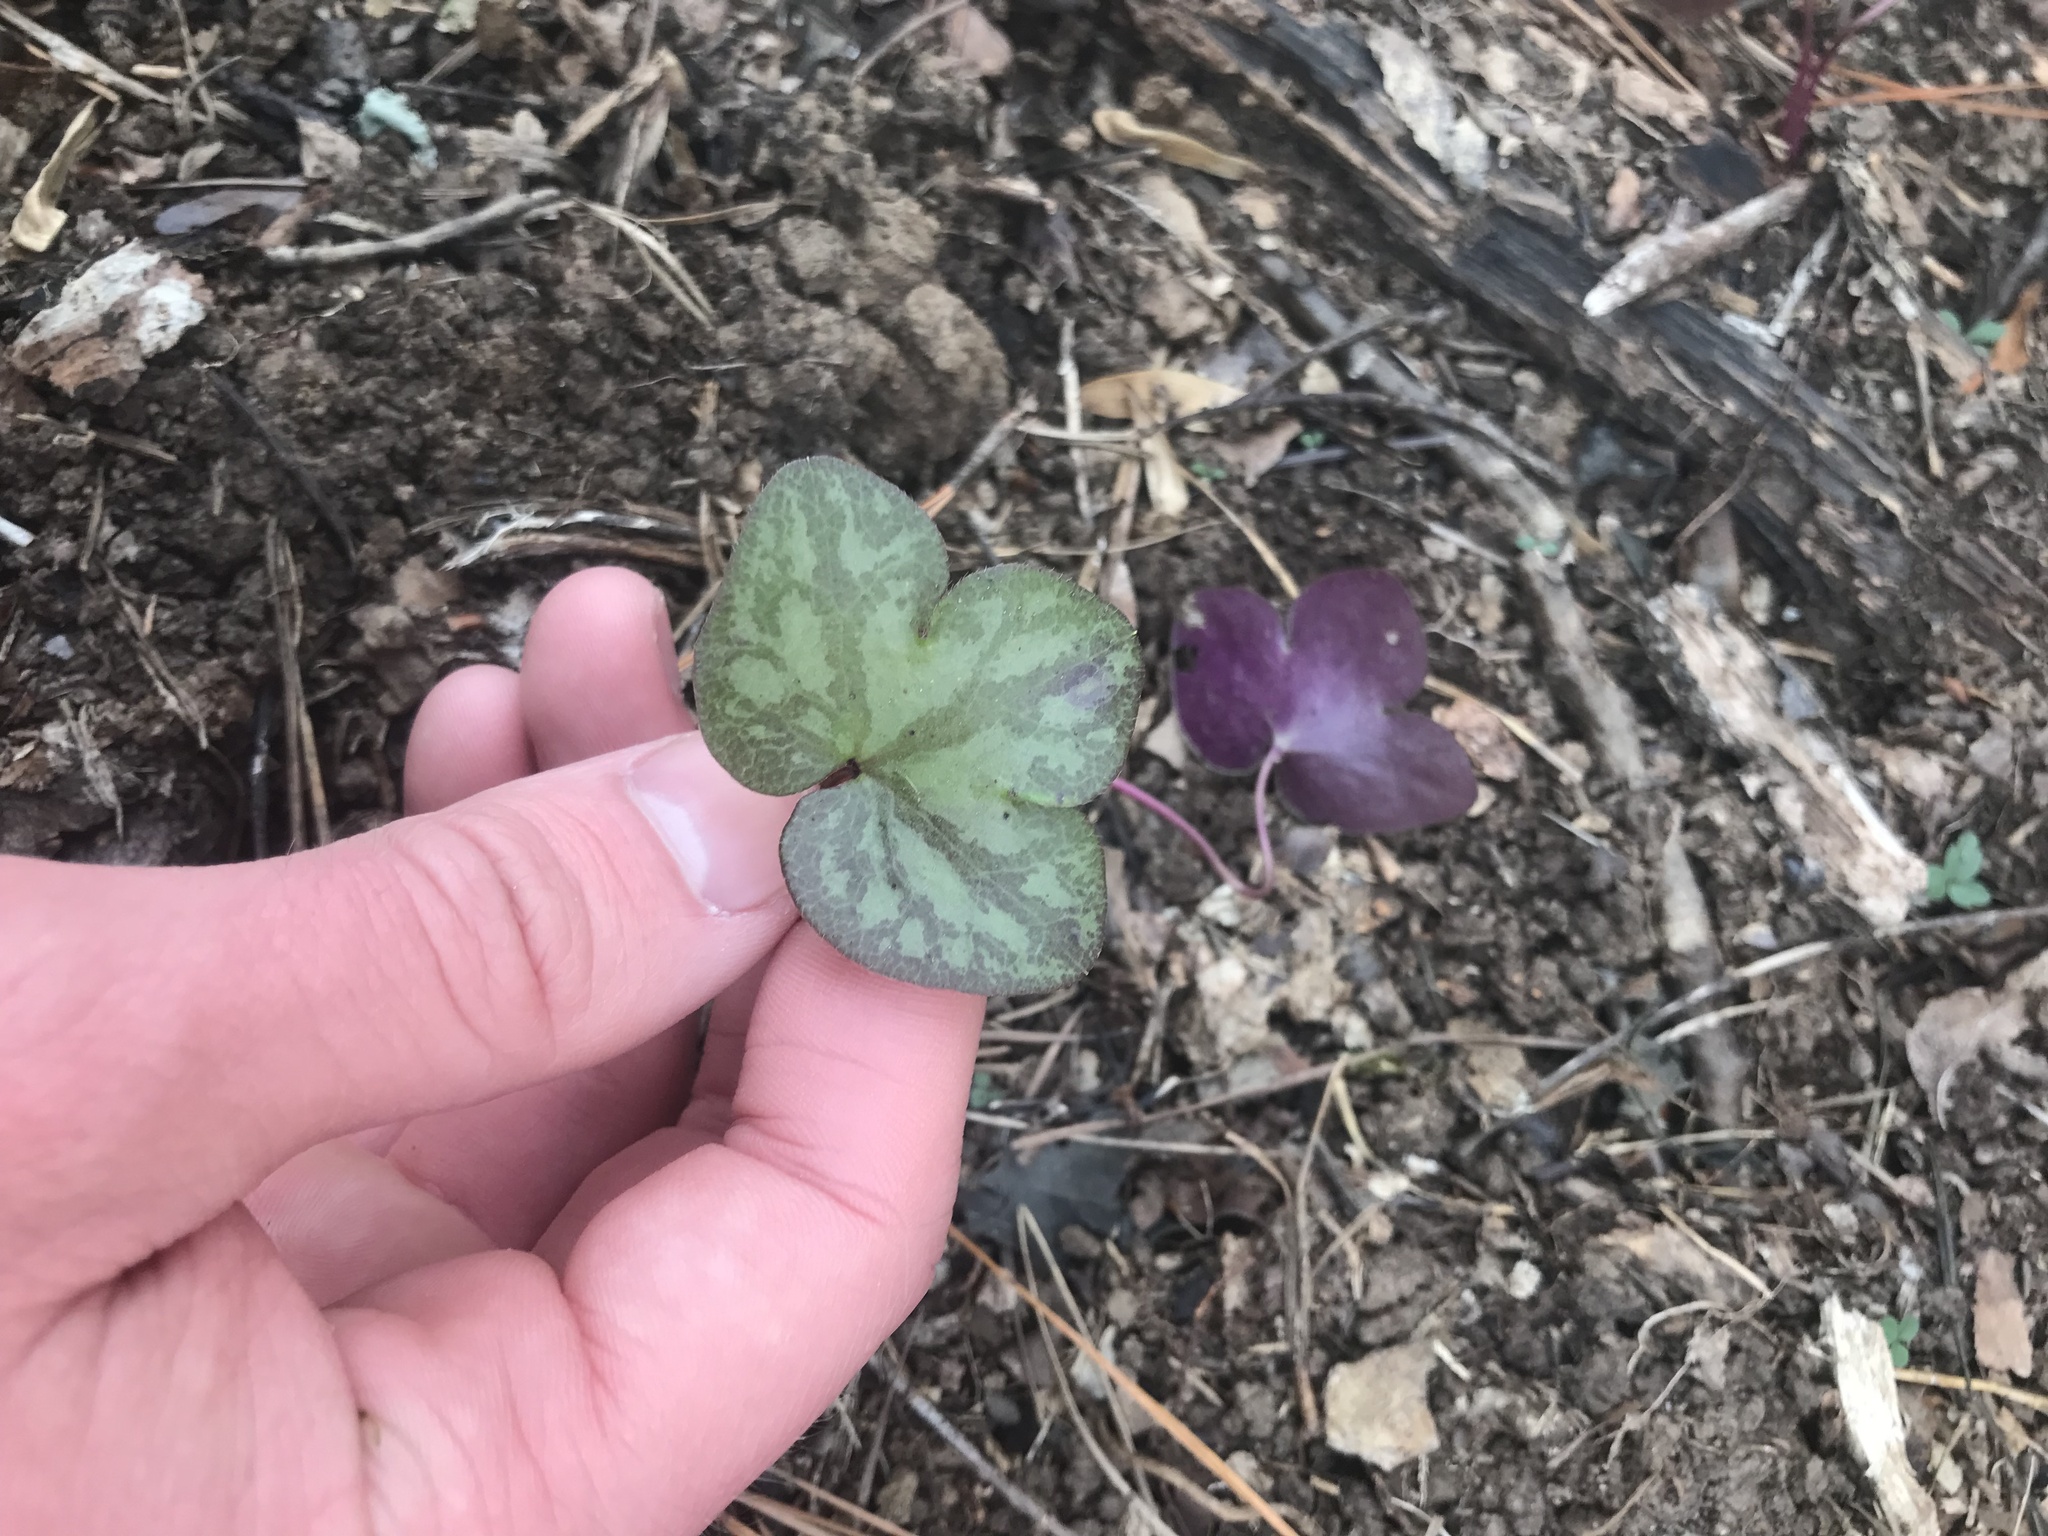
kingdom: Plantae
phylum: Tracheophyta
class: Magnoliopsida
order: Ranunculales
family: Ranunculaceae
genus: Hepatica
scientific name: Hepatica americana
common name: American hepatica
